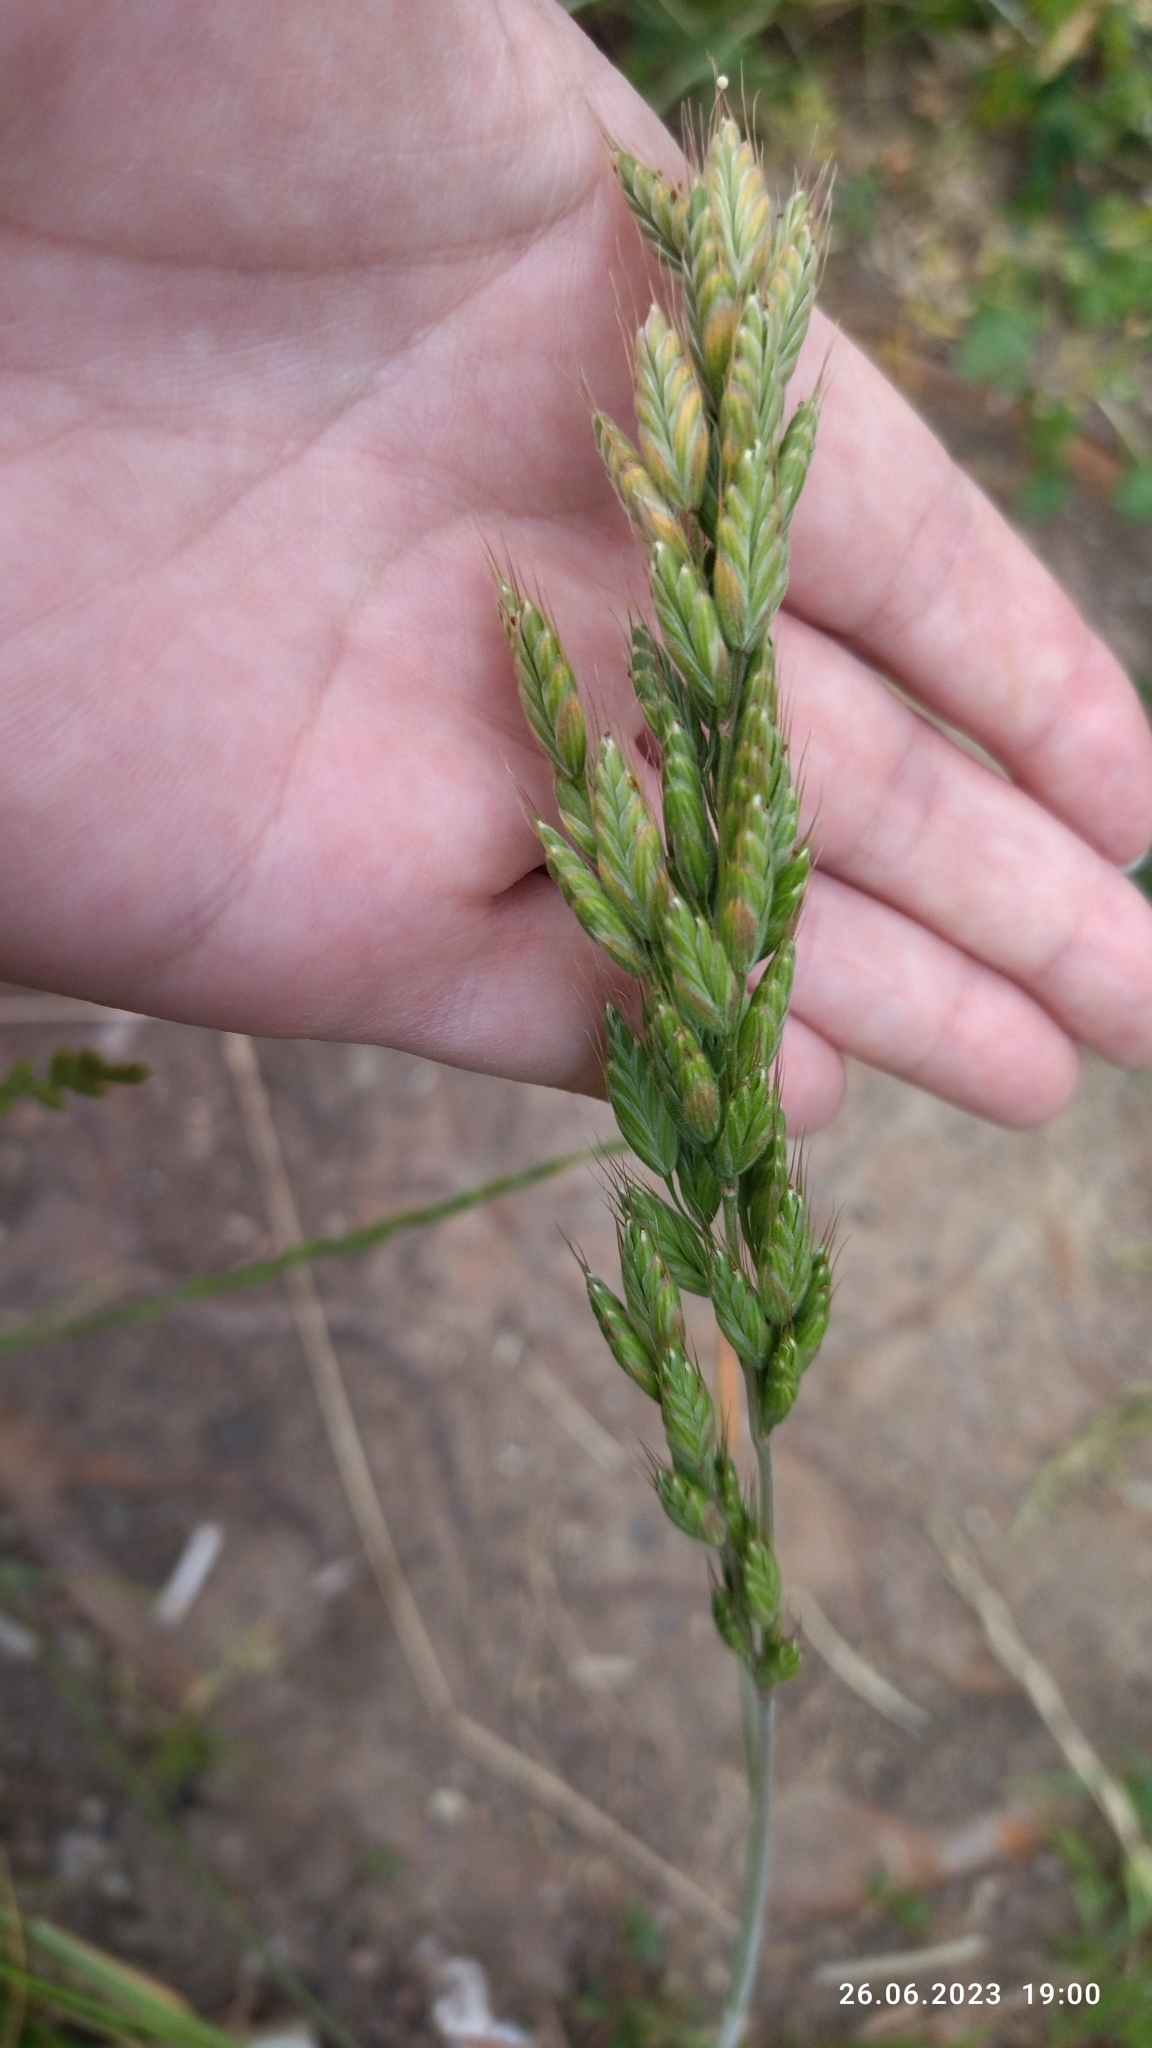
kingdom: Plantae
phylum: Tracheophyta
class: Liliopsida
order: Poales
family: Poaceae
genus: Bromus
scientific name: Bromus hordeaceus
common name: Soft brome
